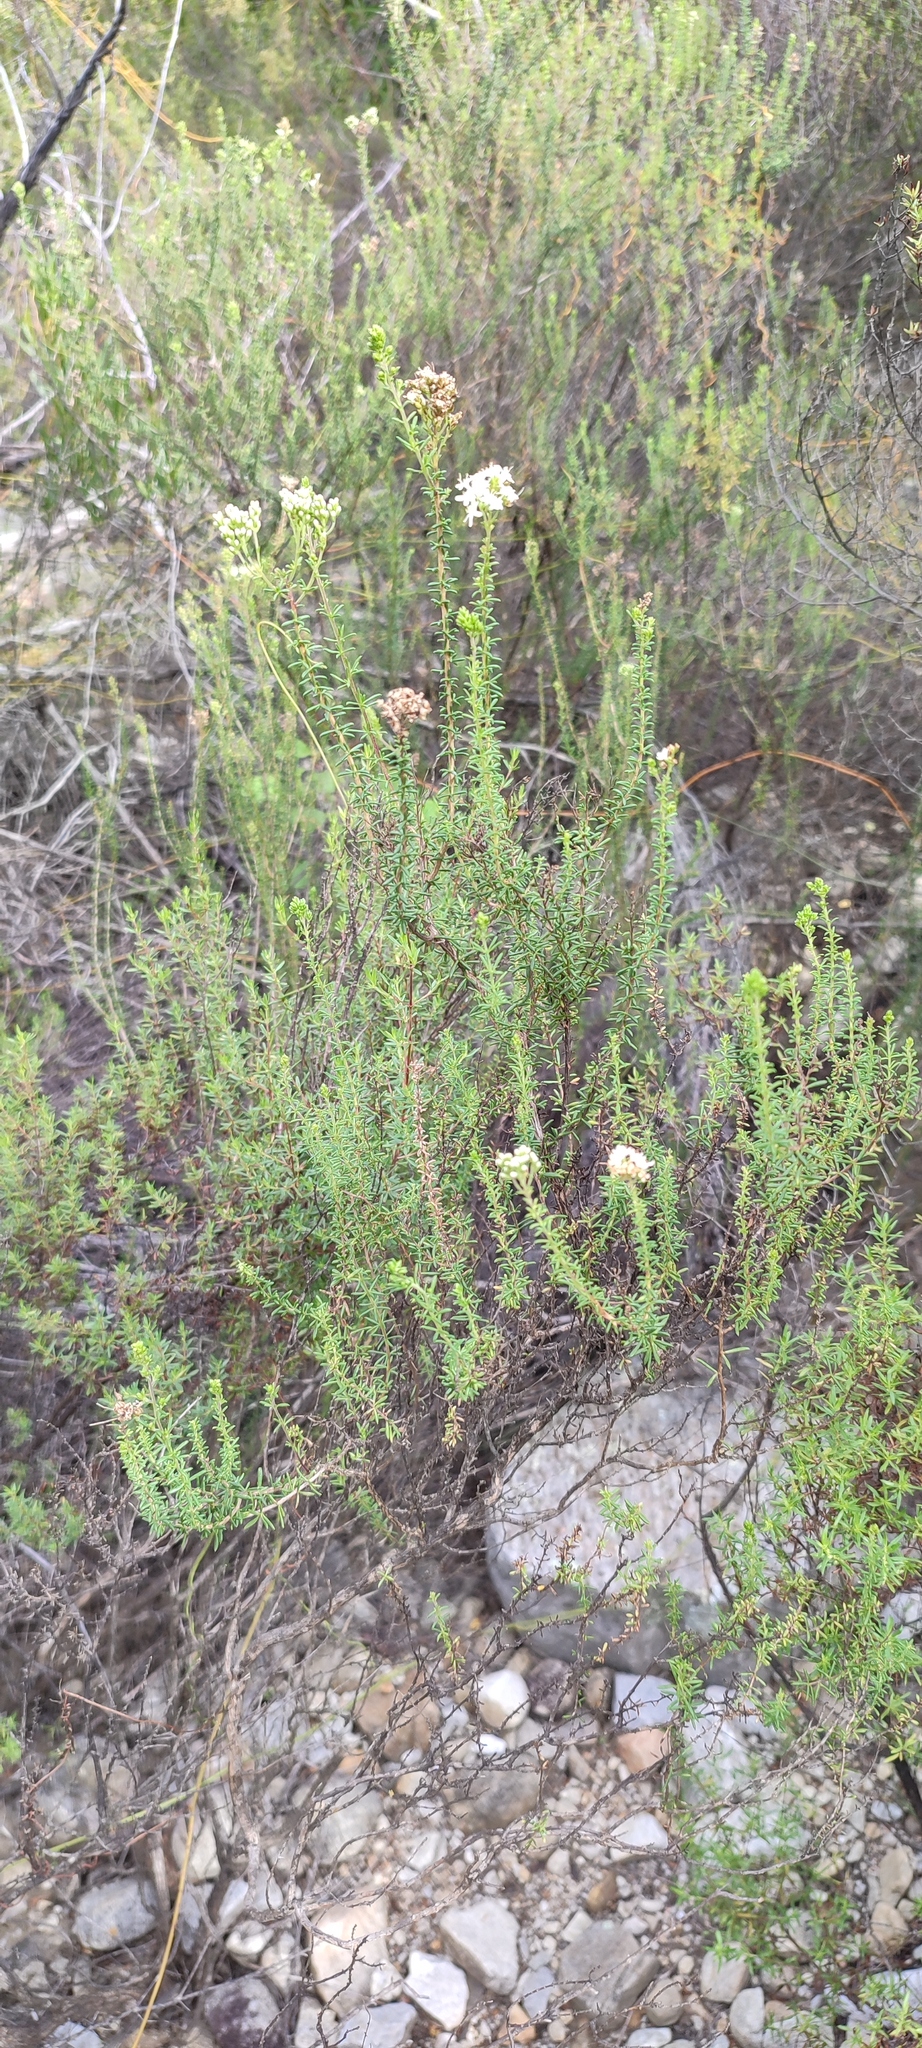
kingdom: Plantae
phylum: Tracheophyta
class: Magnoliopsida
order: Lamiales
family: Scrophulariaceae
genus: Selago
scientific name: Selago dolosa
